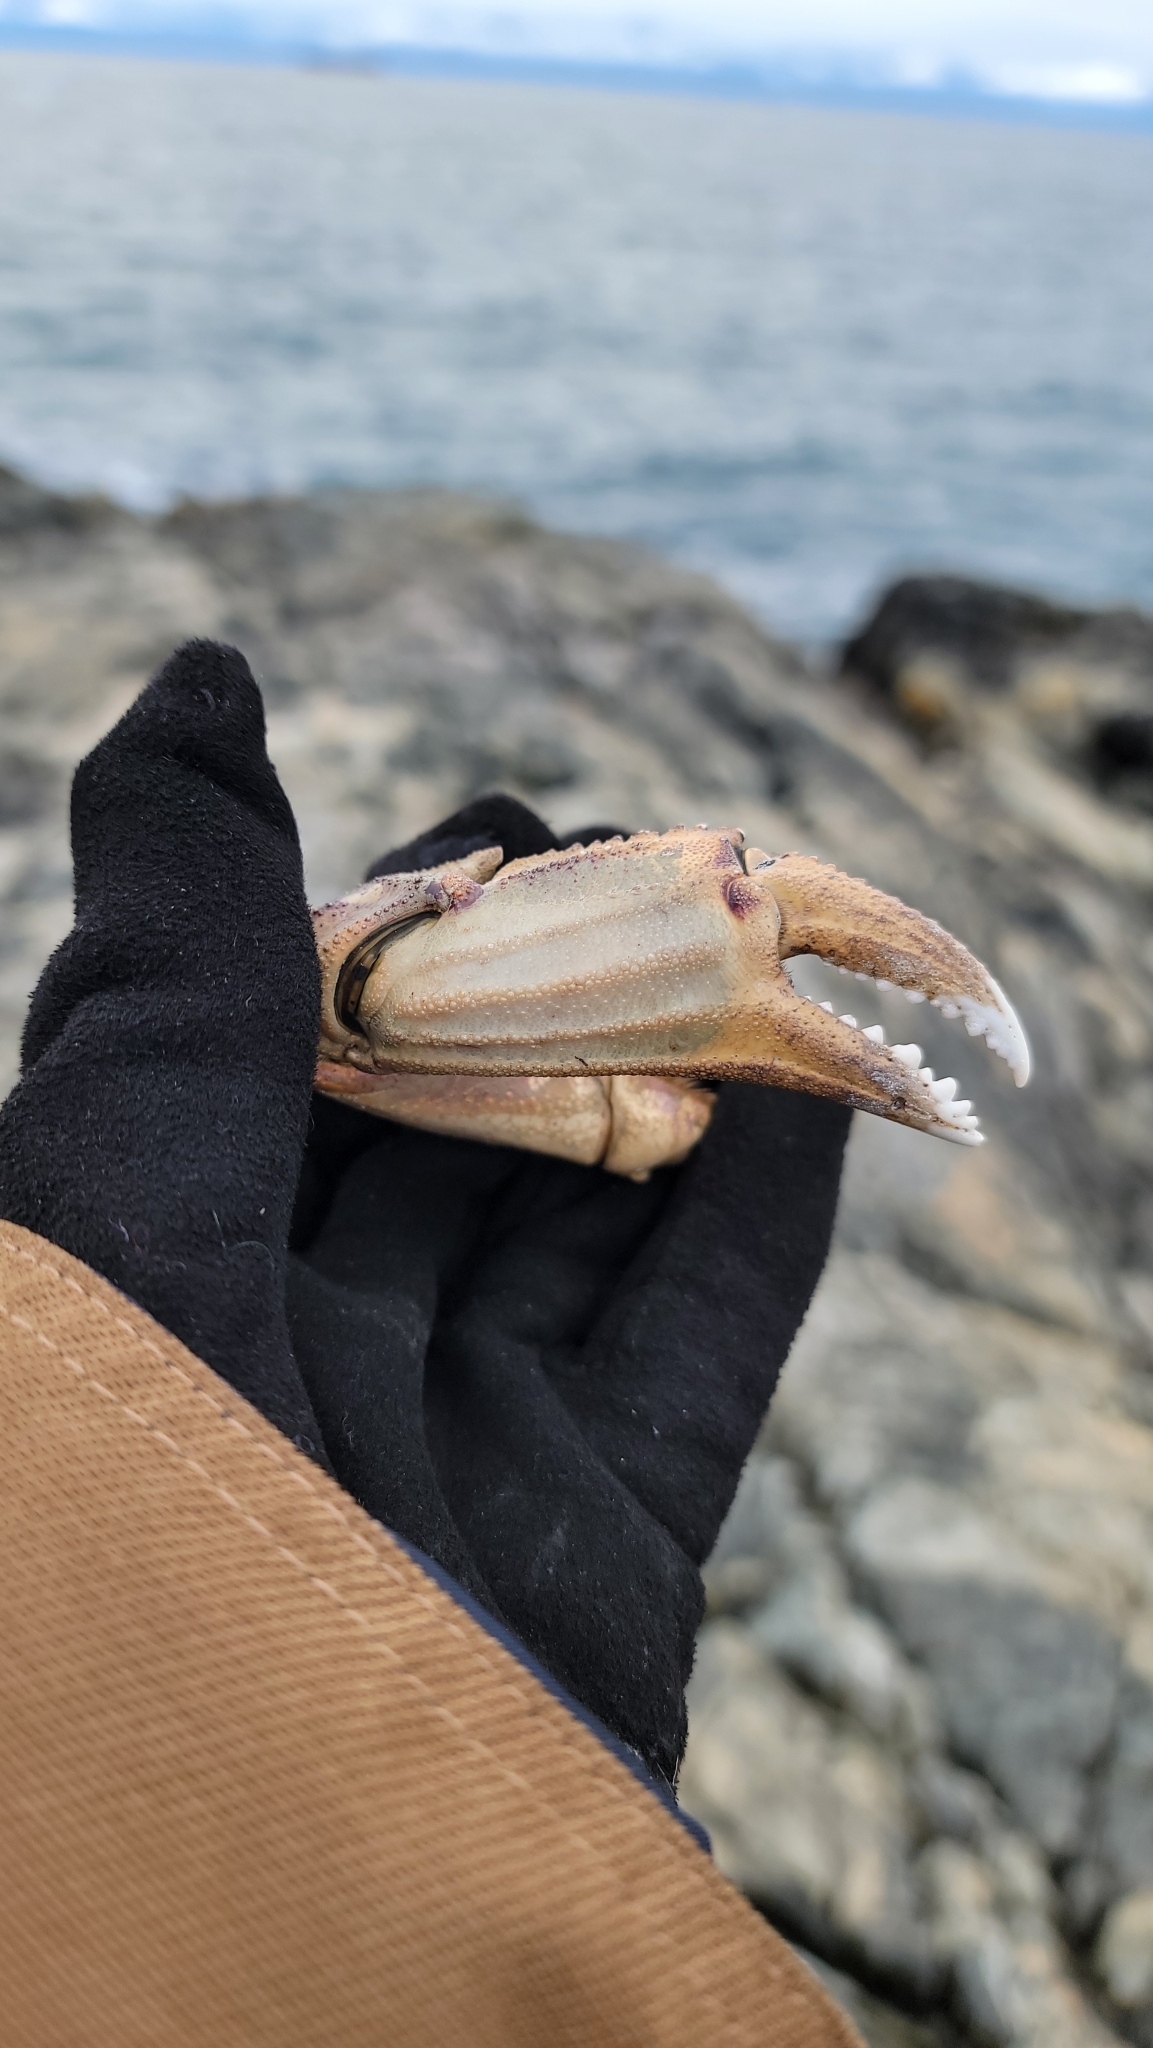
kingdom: Animalia
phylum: Arthropoda
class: Malacostraca
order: Decapoda
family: Cancridae
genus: Metacarcinus
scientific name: Metacarcinus magister
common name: Californian crab
